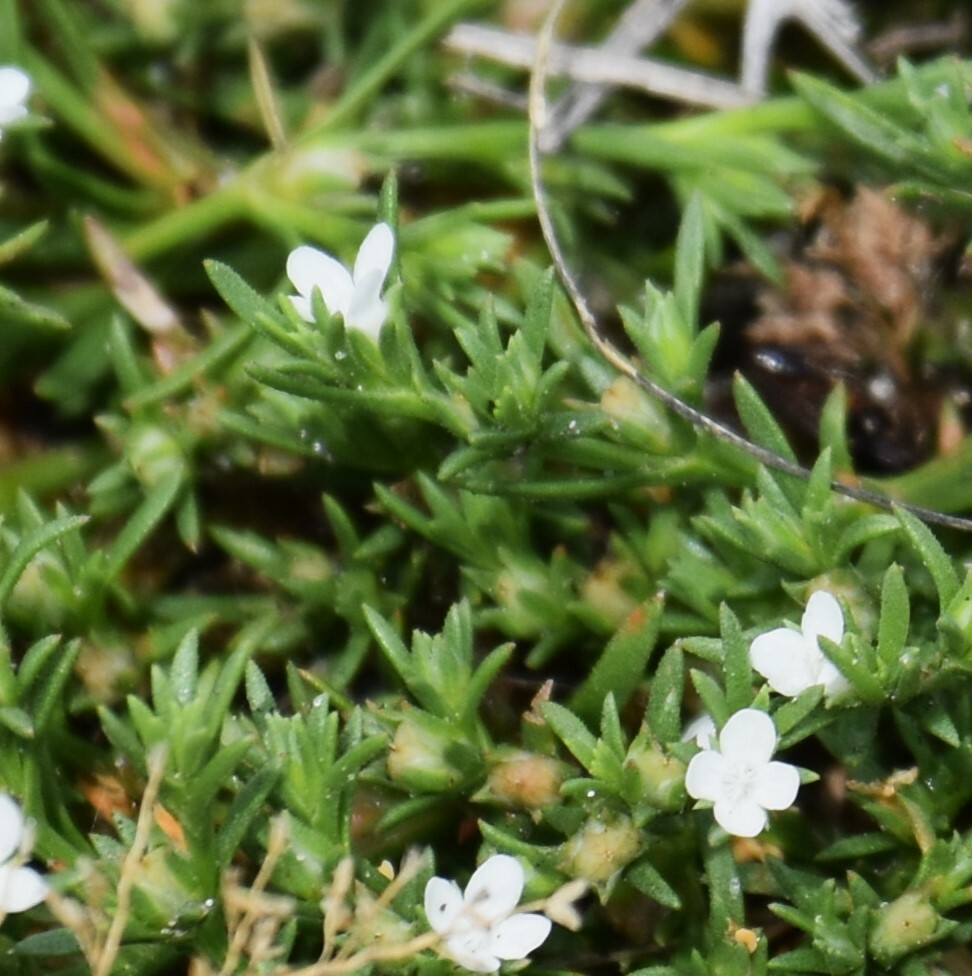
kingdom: Plantae
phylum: Tracheophyta
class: Magnoliopsida
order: Lamiales
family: Tetrachondraceae
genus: Polypremum
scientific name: Polypremum procumbens
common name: Juniper-leaf
